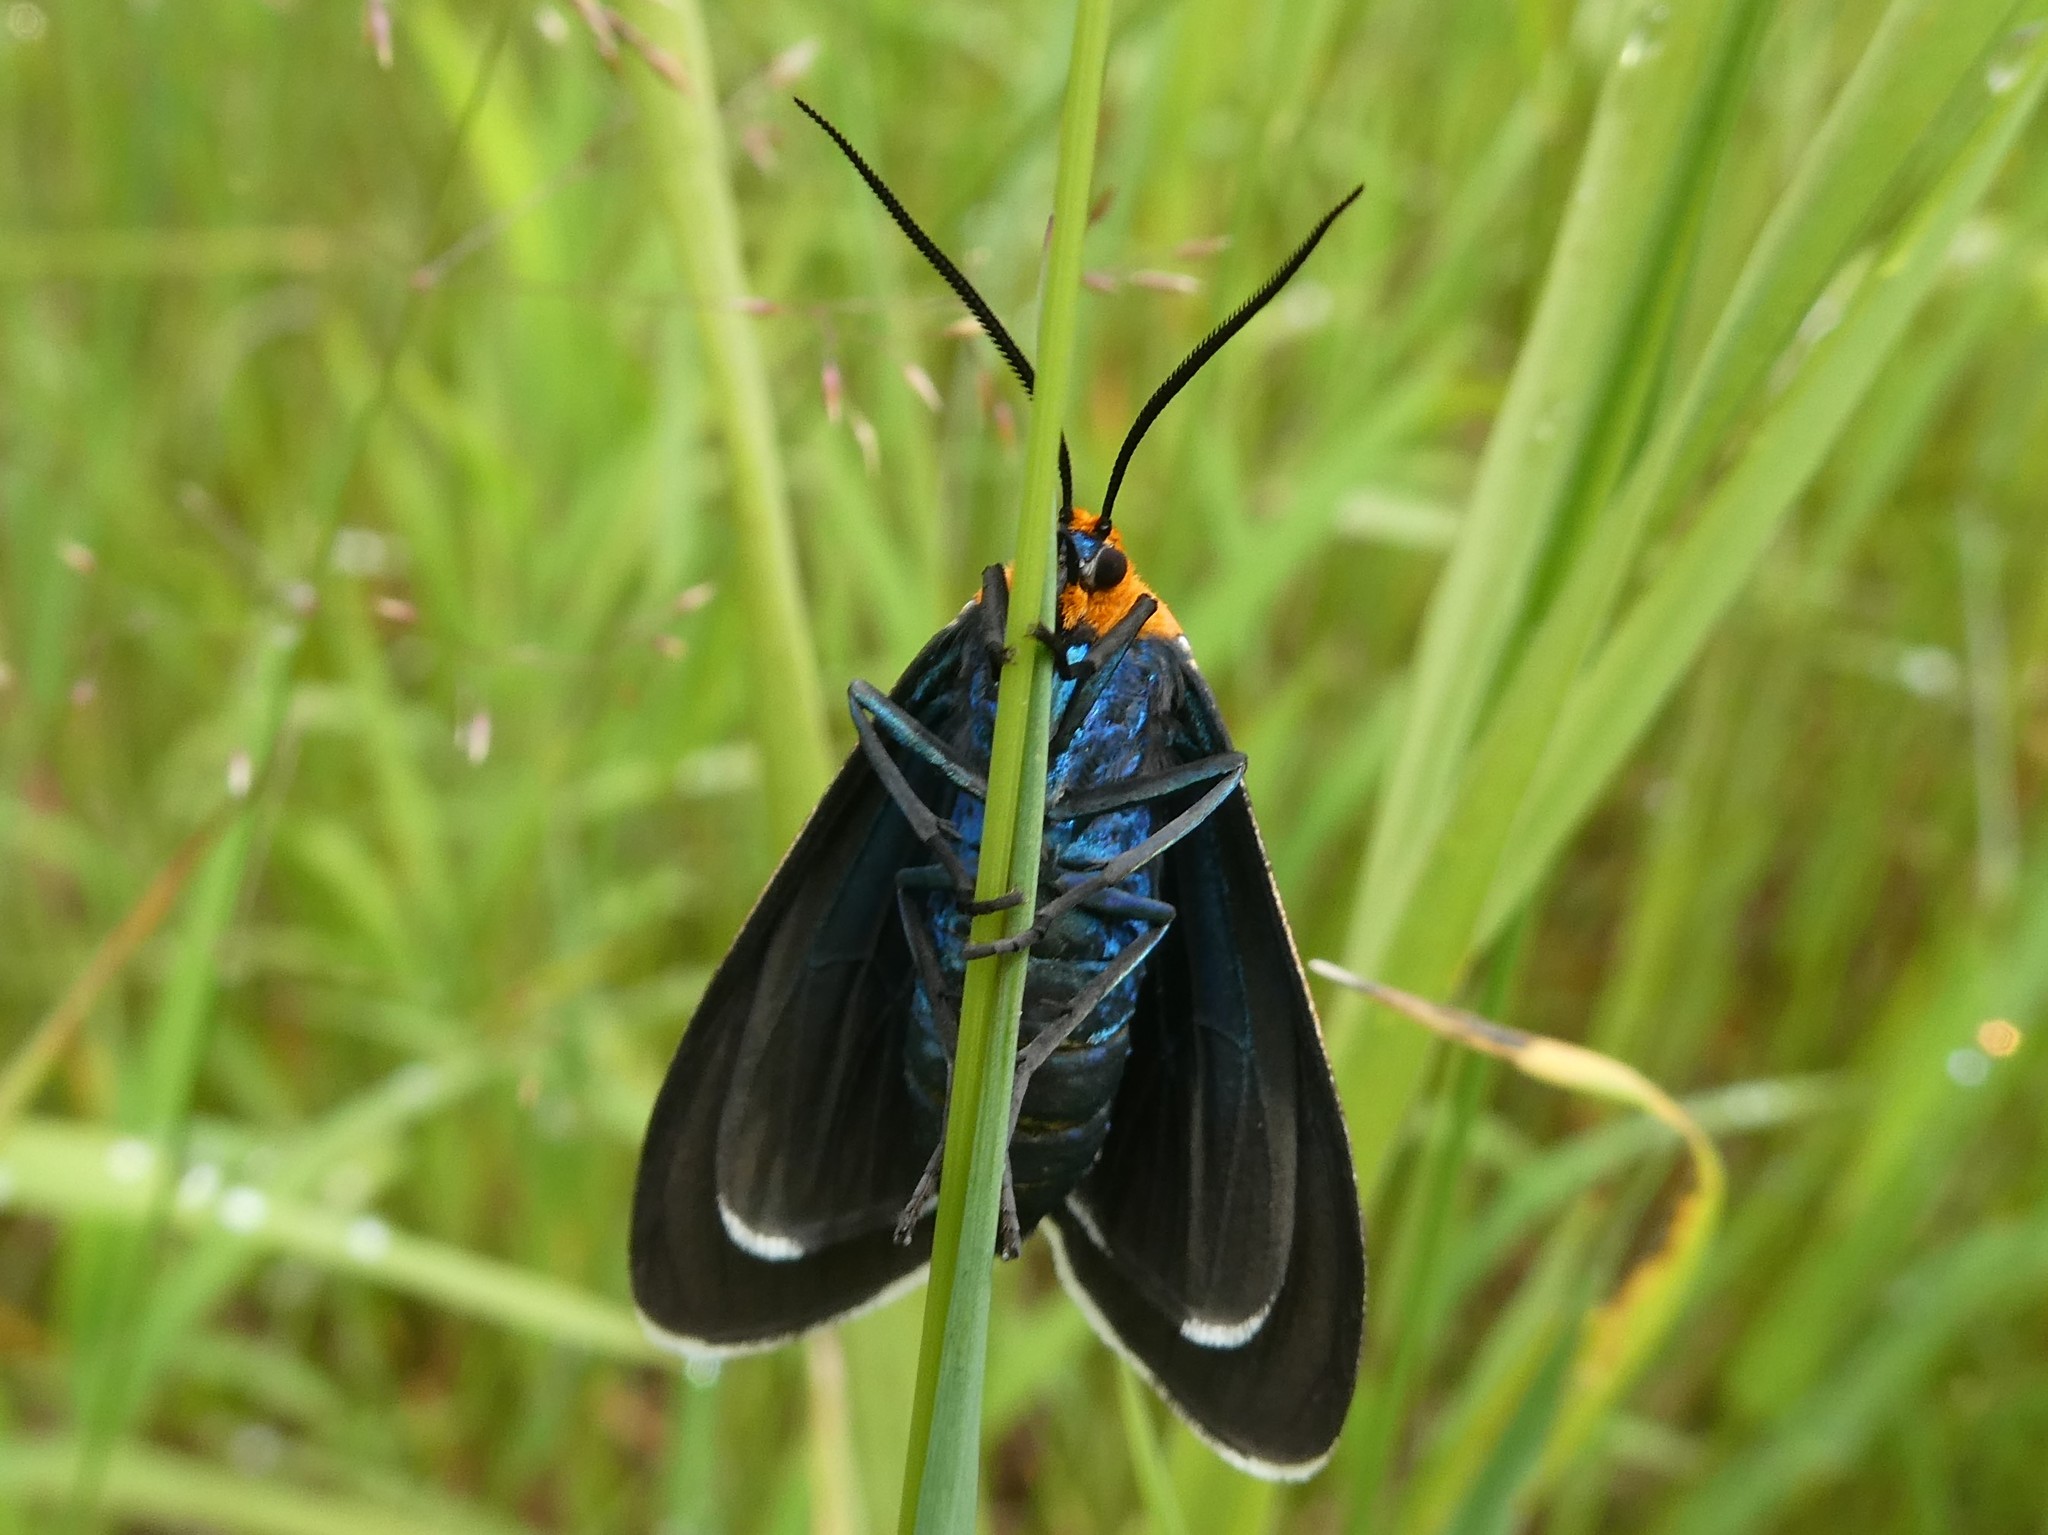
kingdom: Animalia
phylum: Arthropoda
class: Insecta
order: Lepidoptera
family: Erebidae
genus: Ctenucha
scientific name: Ctenucha virginica
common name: Virginia ctenucha moth
